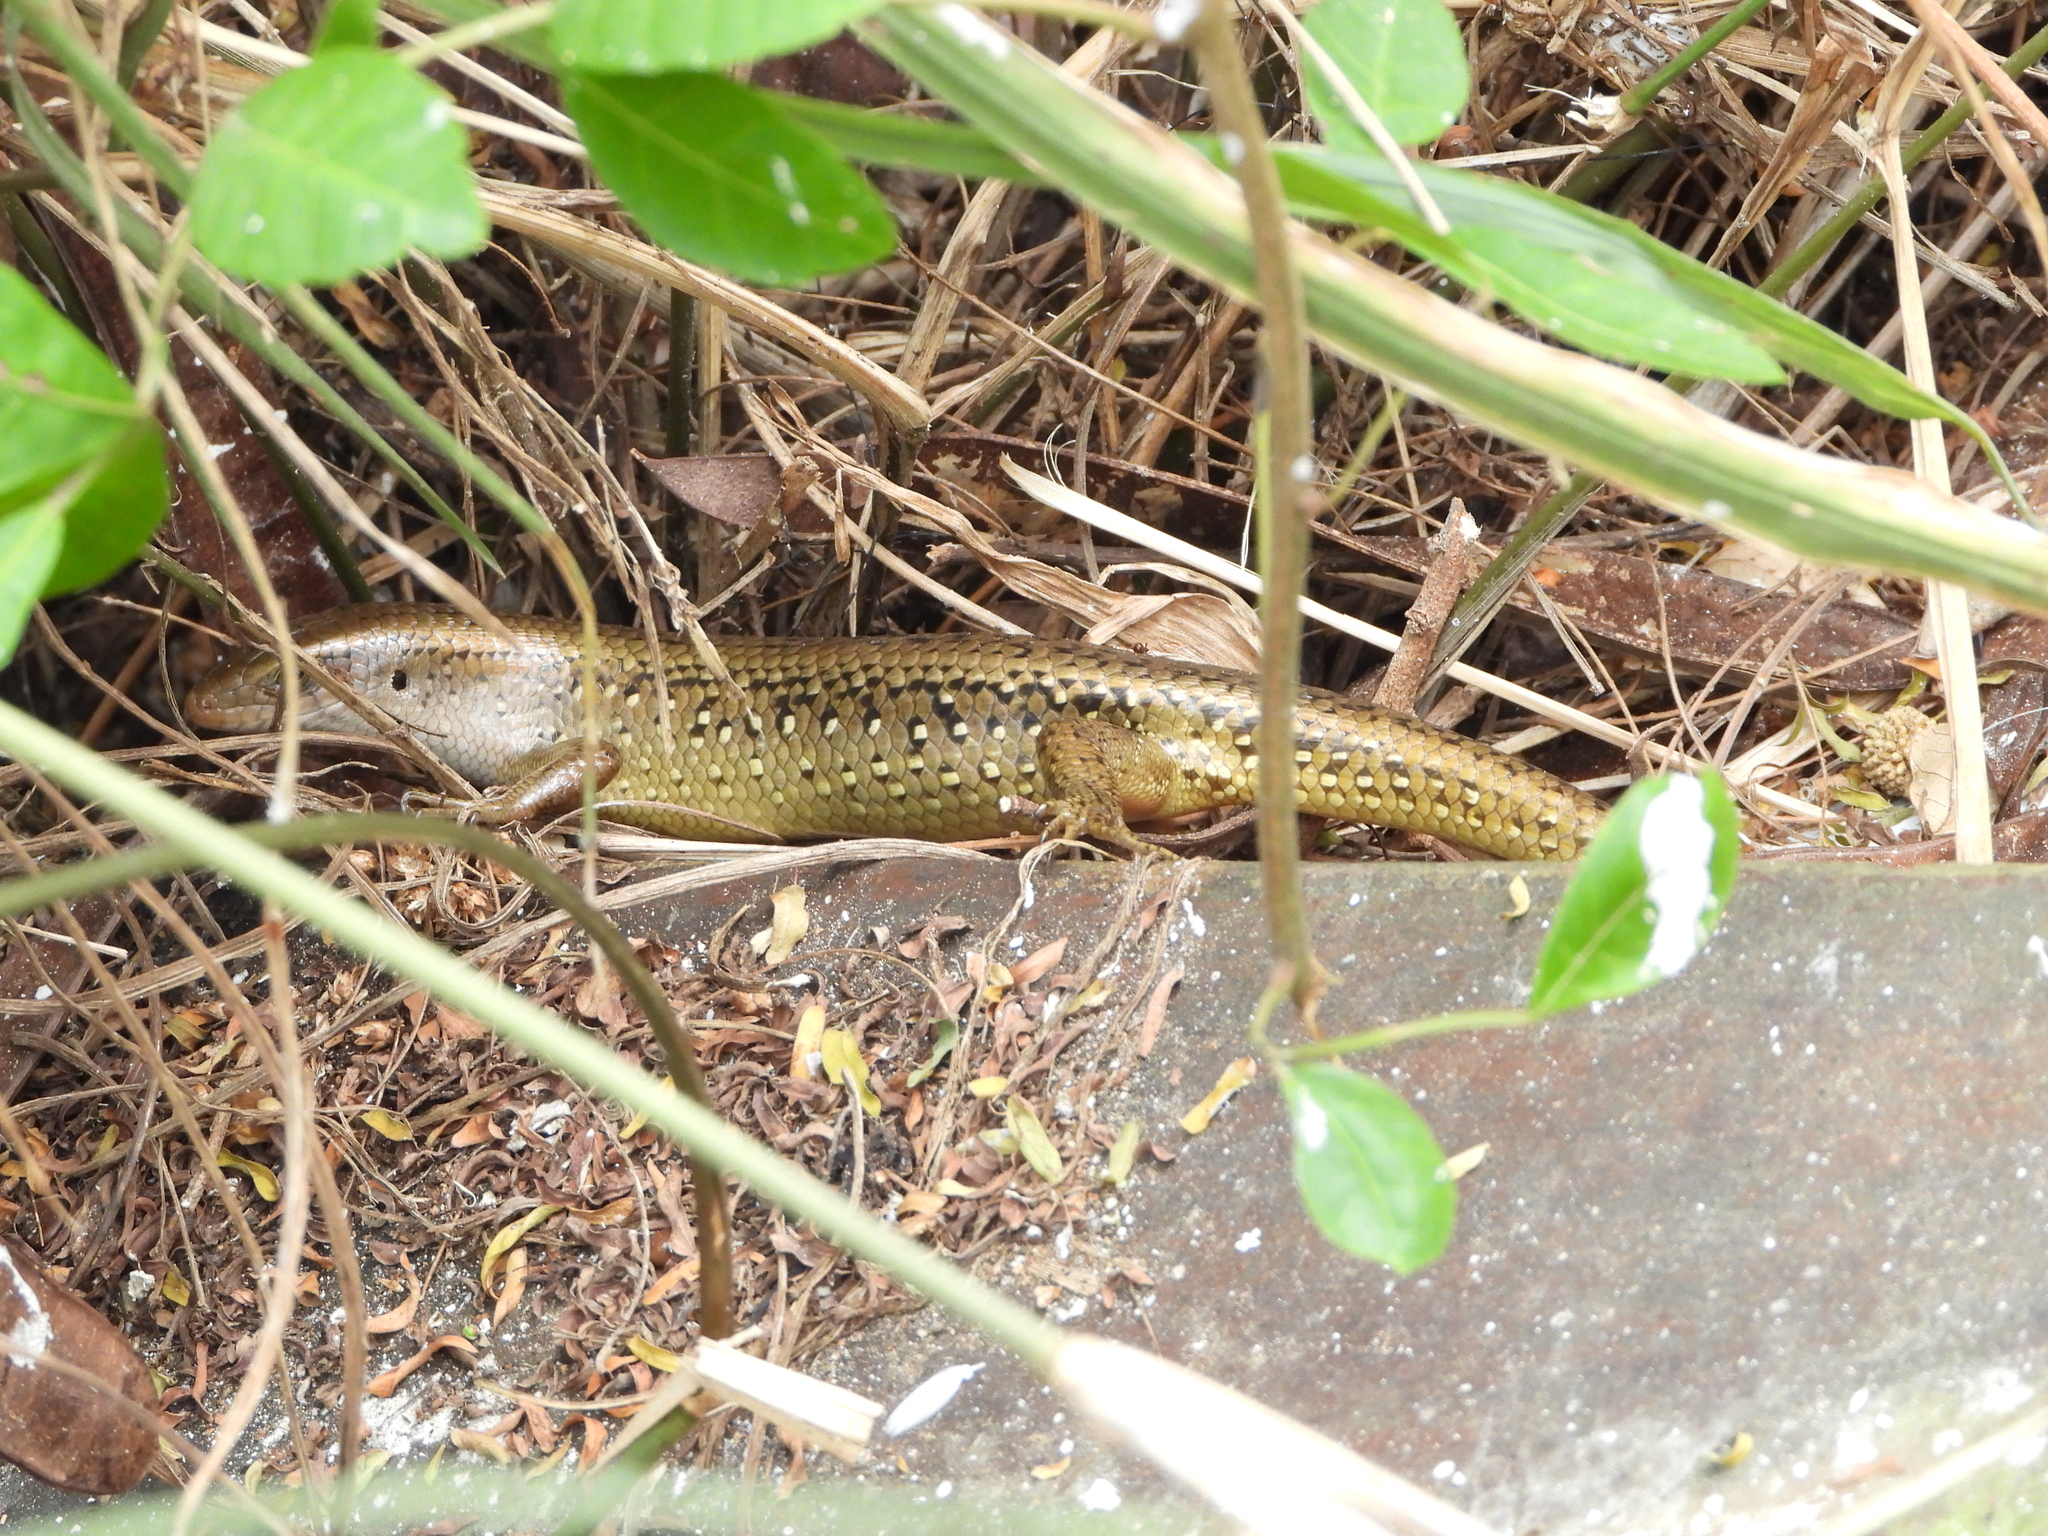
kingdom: Animalia
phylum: Chordata
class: Squamata
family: Scincidae
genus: Eutropis
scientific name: Eutropis multifasciata
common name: Common mabuya
